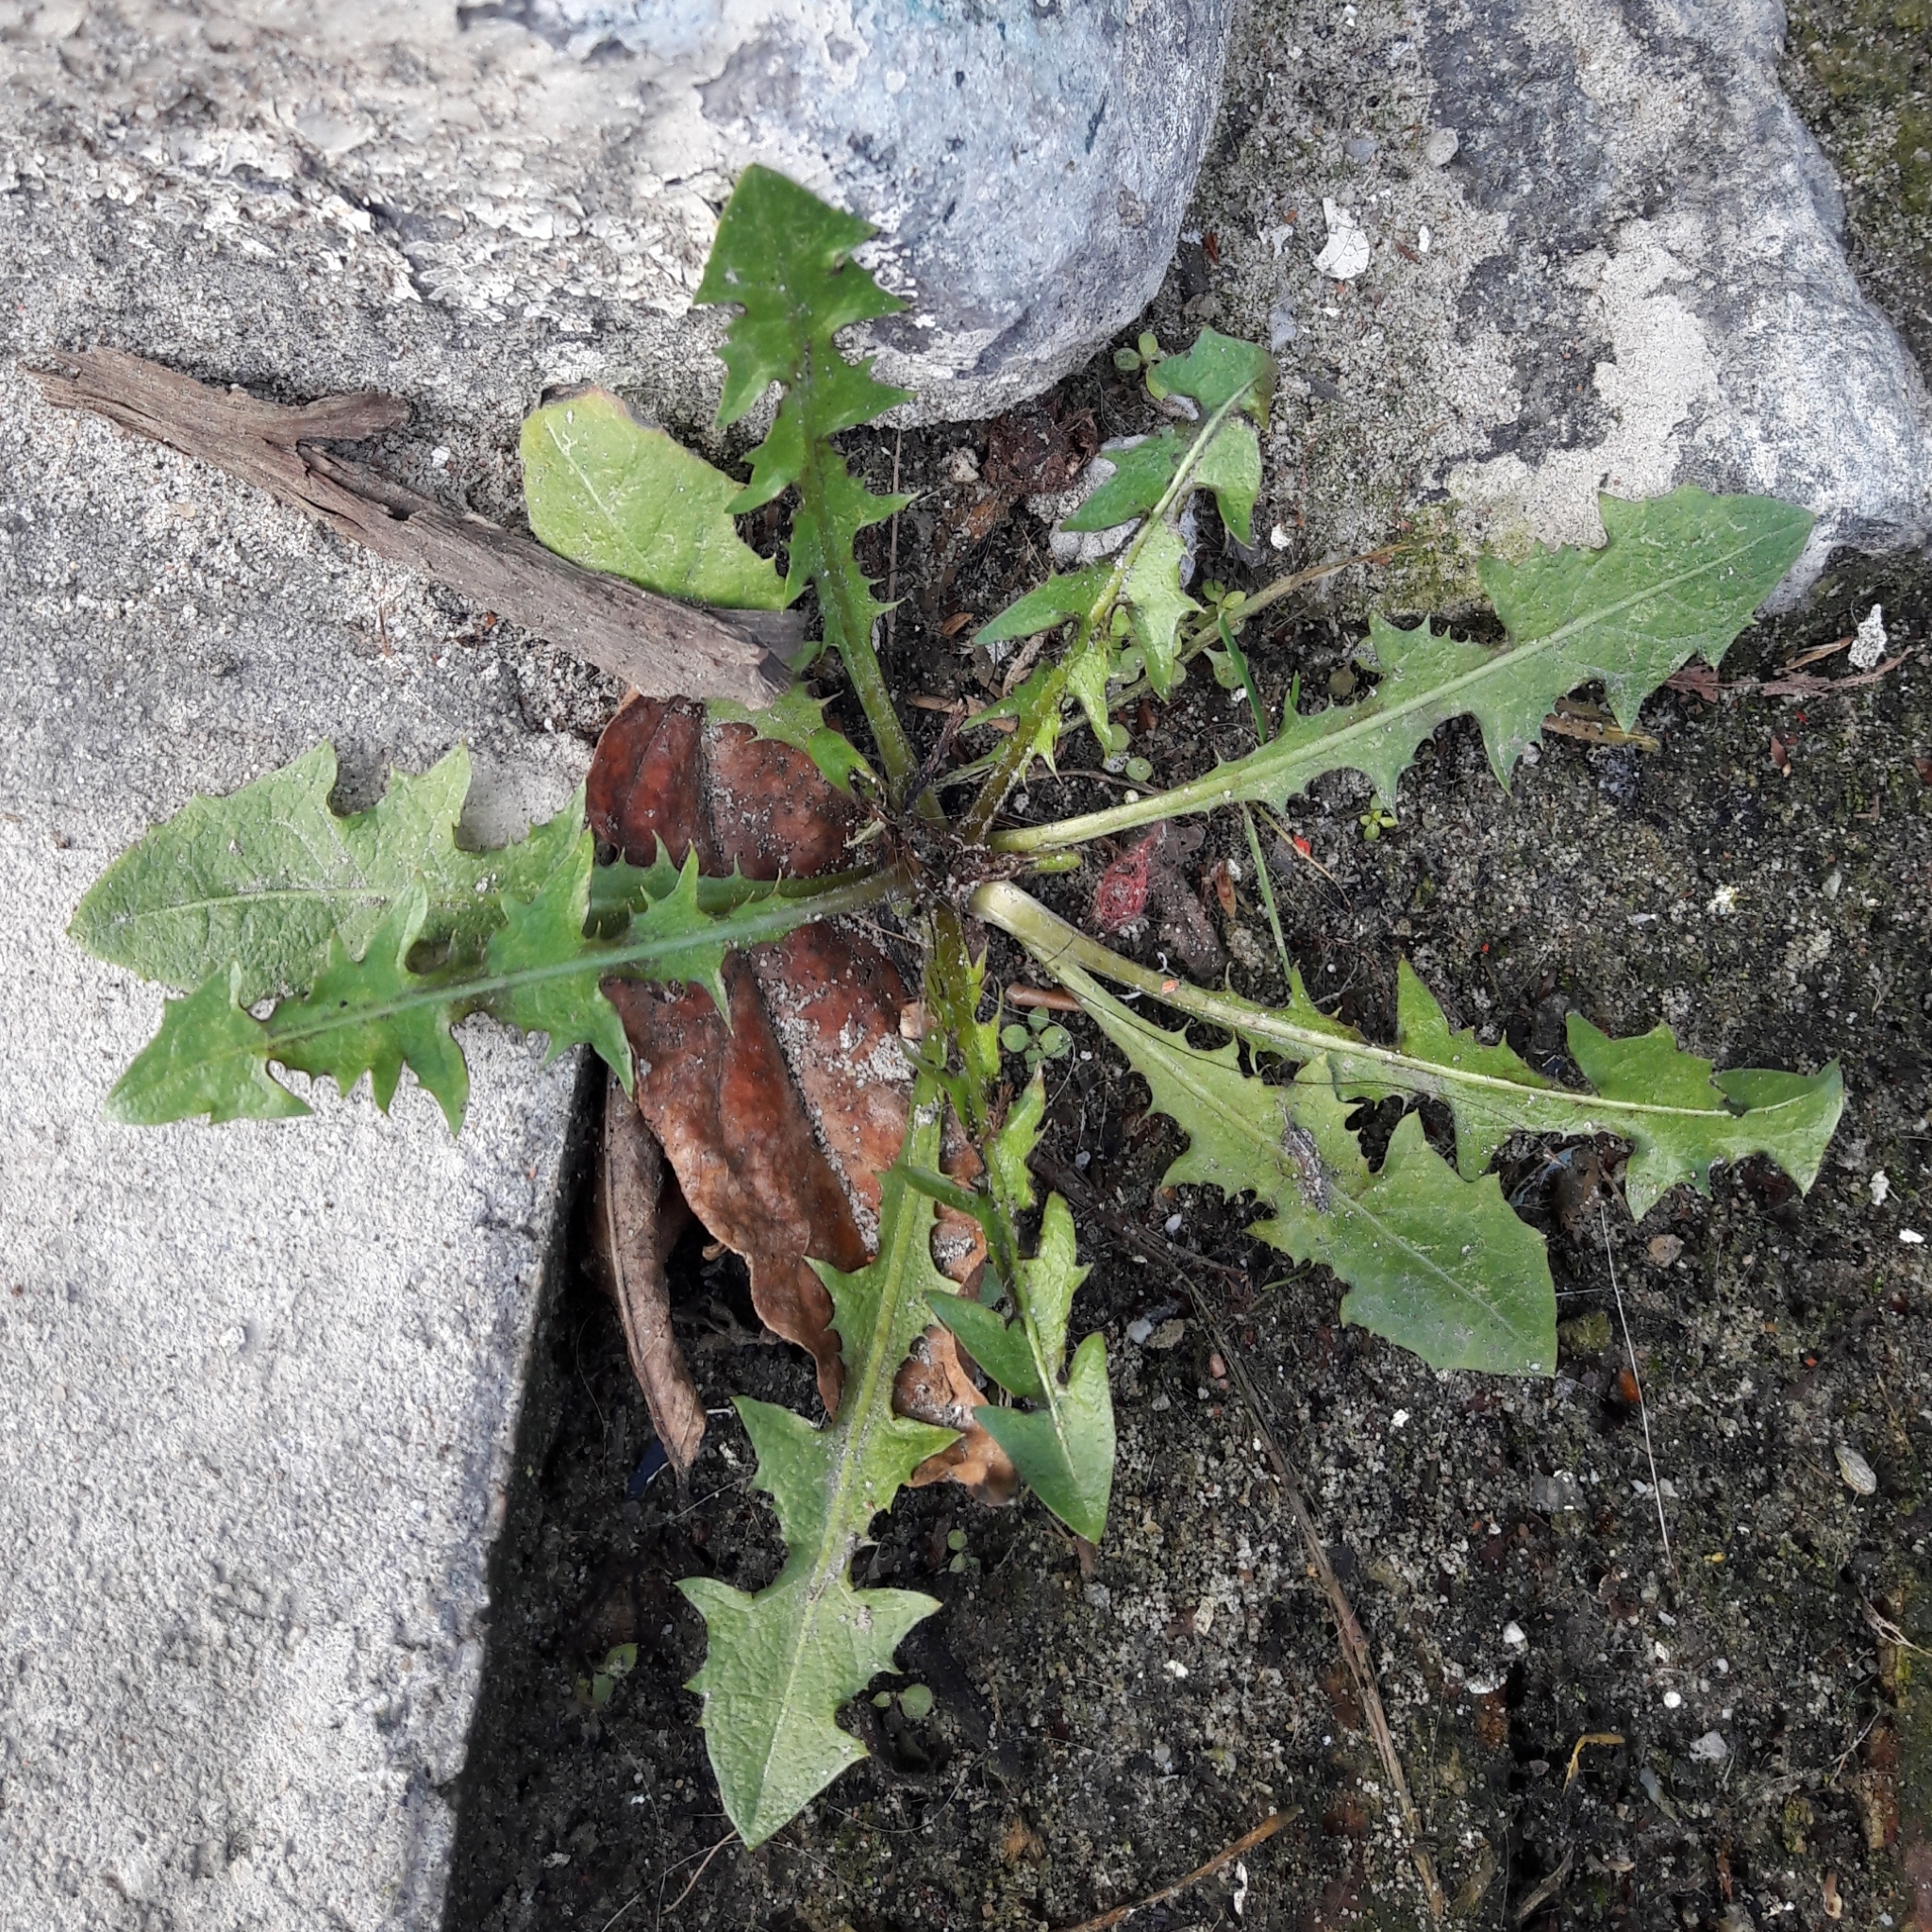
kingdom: Plantae
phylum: Tracheophyta
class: Magnoliopsida
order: Asterales
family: Asteraceae
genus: Sonchus
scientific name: Sonchus oleraceus
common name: Common sowthistle
